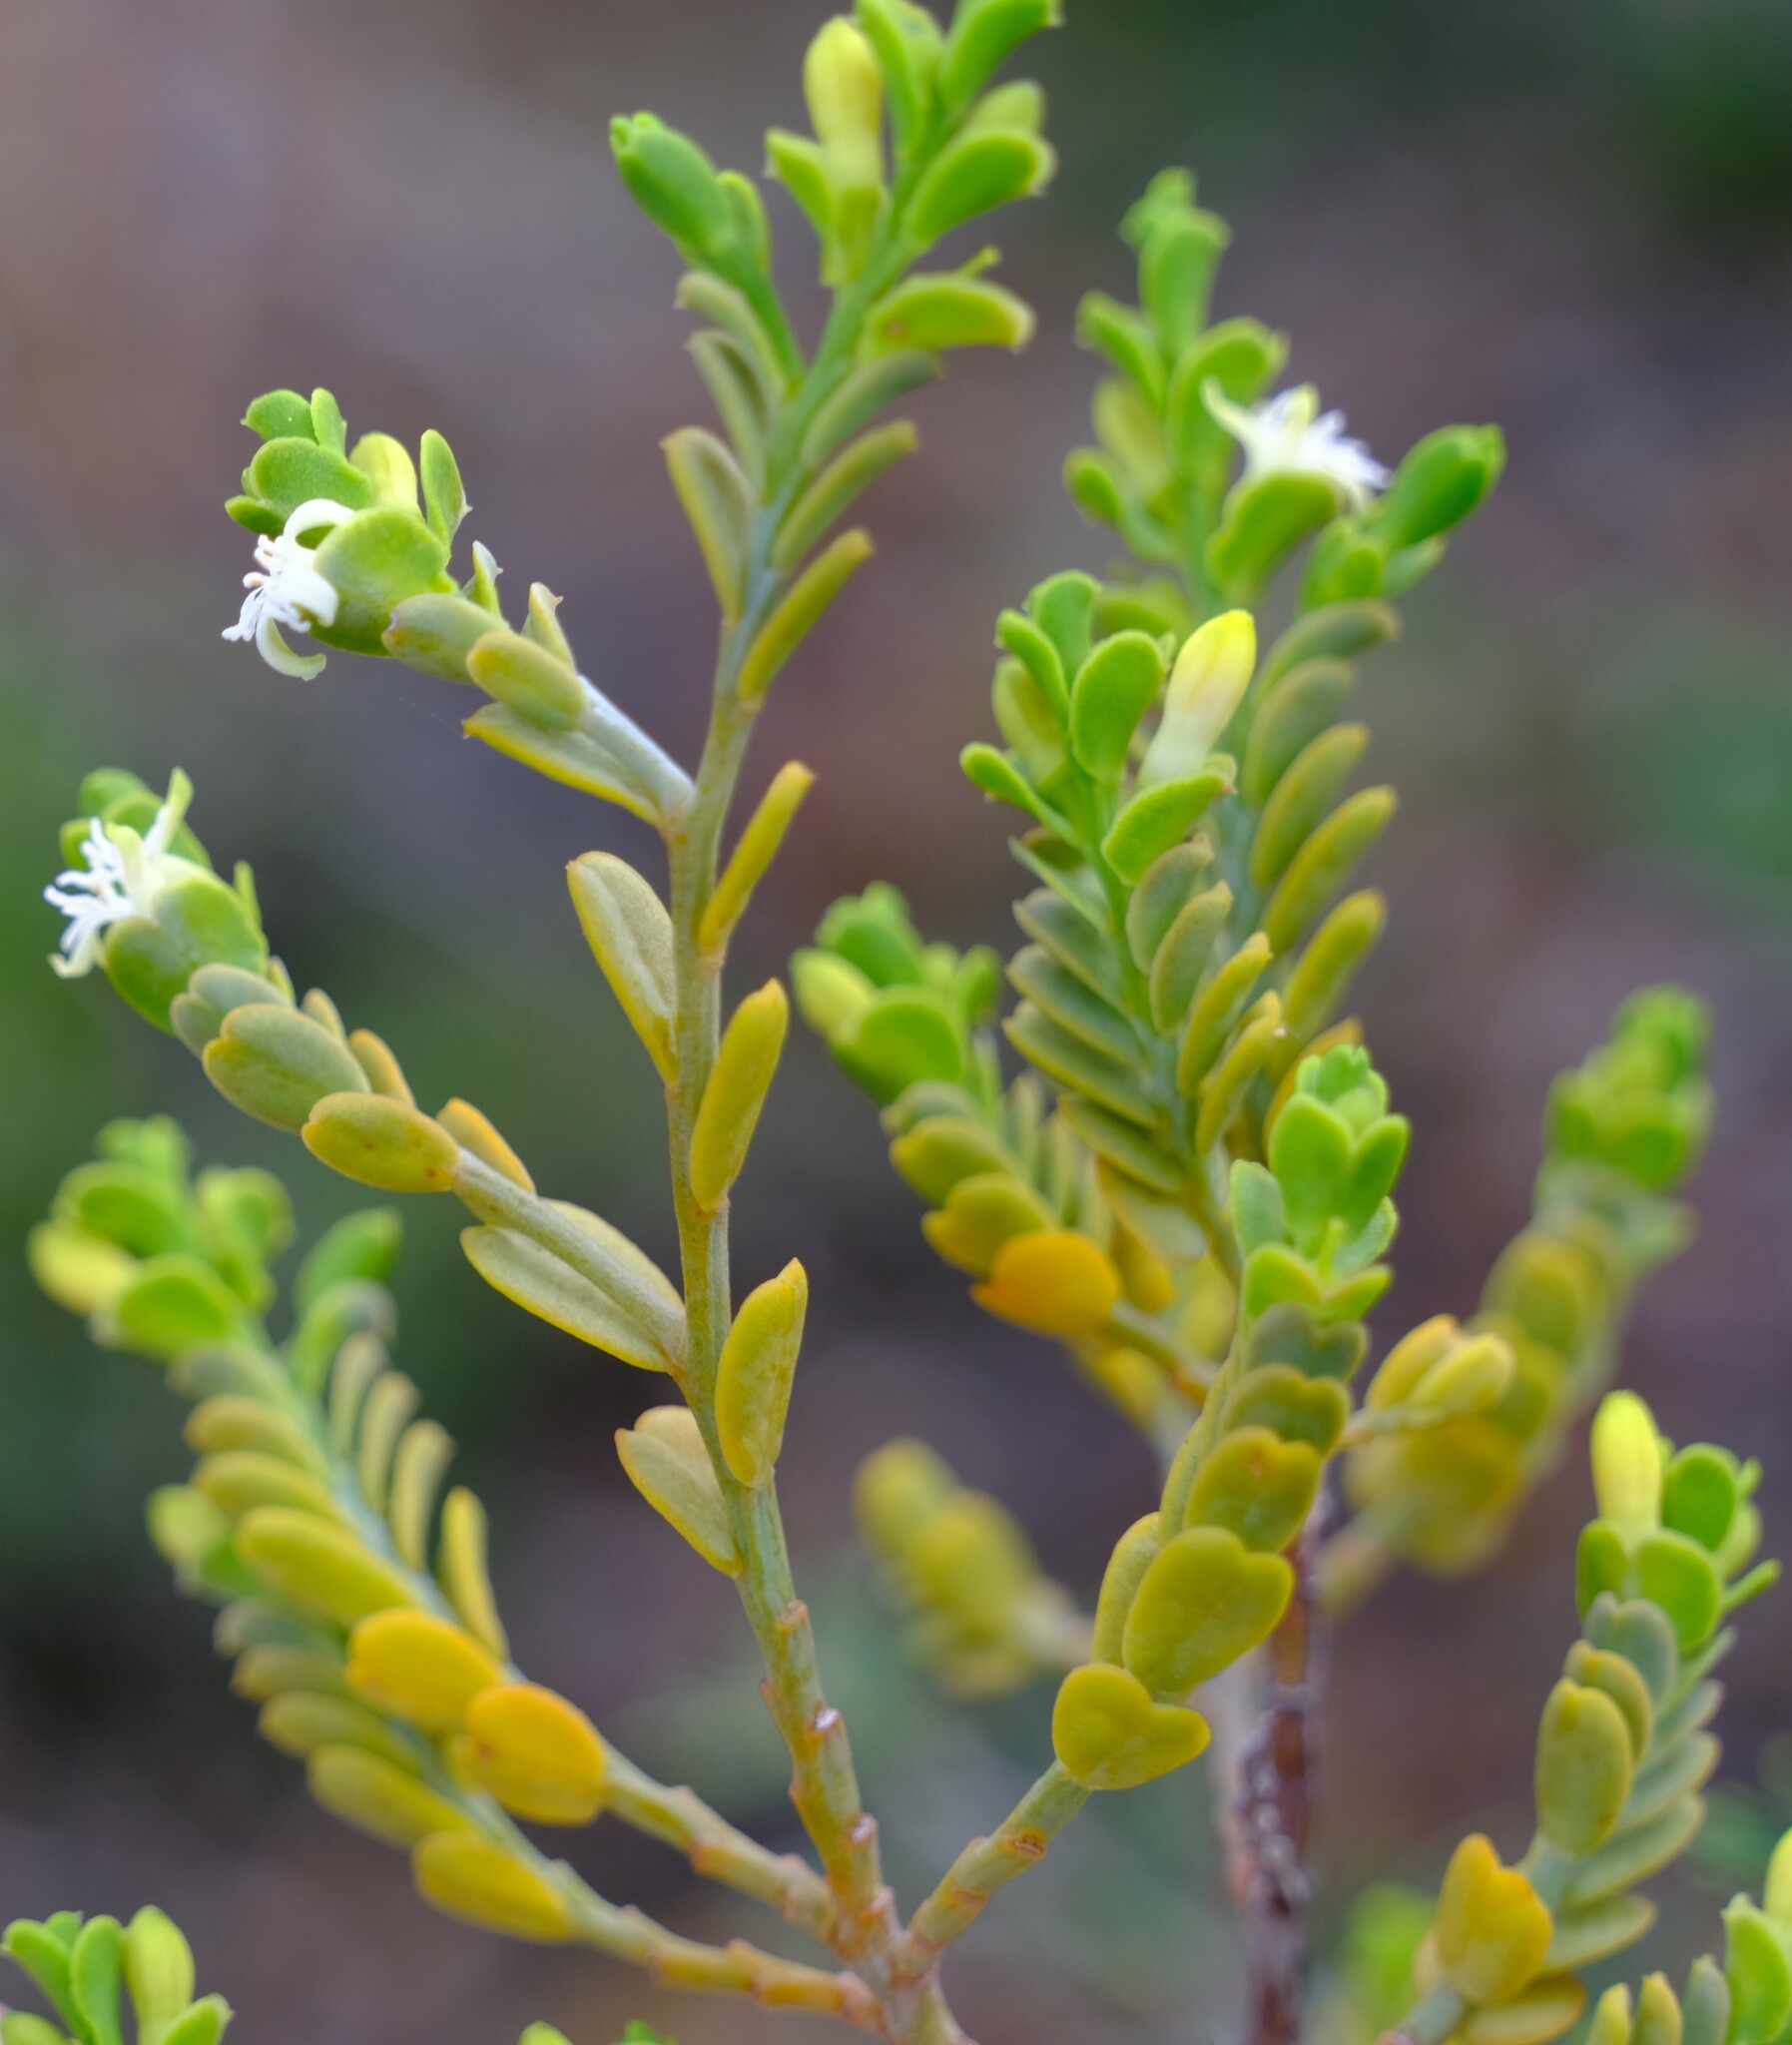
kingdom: Plantae
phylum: Tracheophyta
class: Magnoliopsida
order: Santalales
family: Olacaceae
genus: Olax
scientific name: Olax benthamiana
